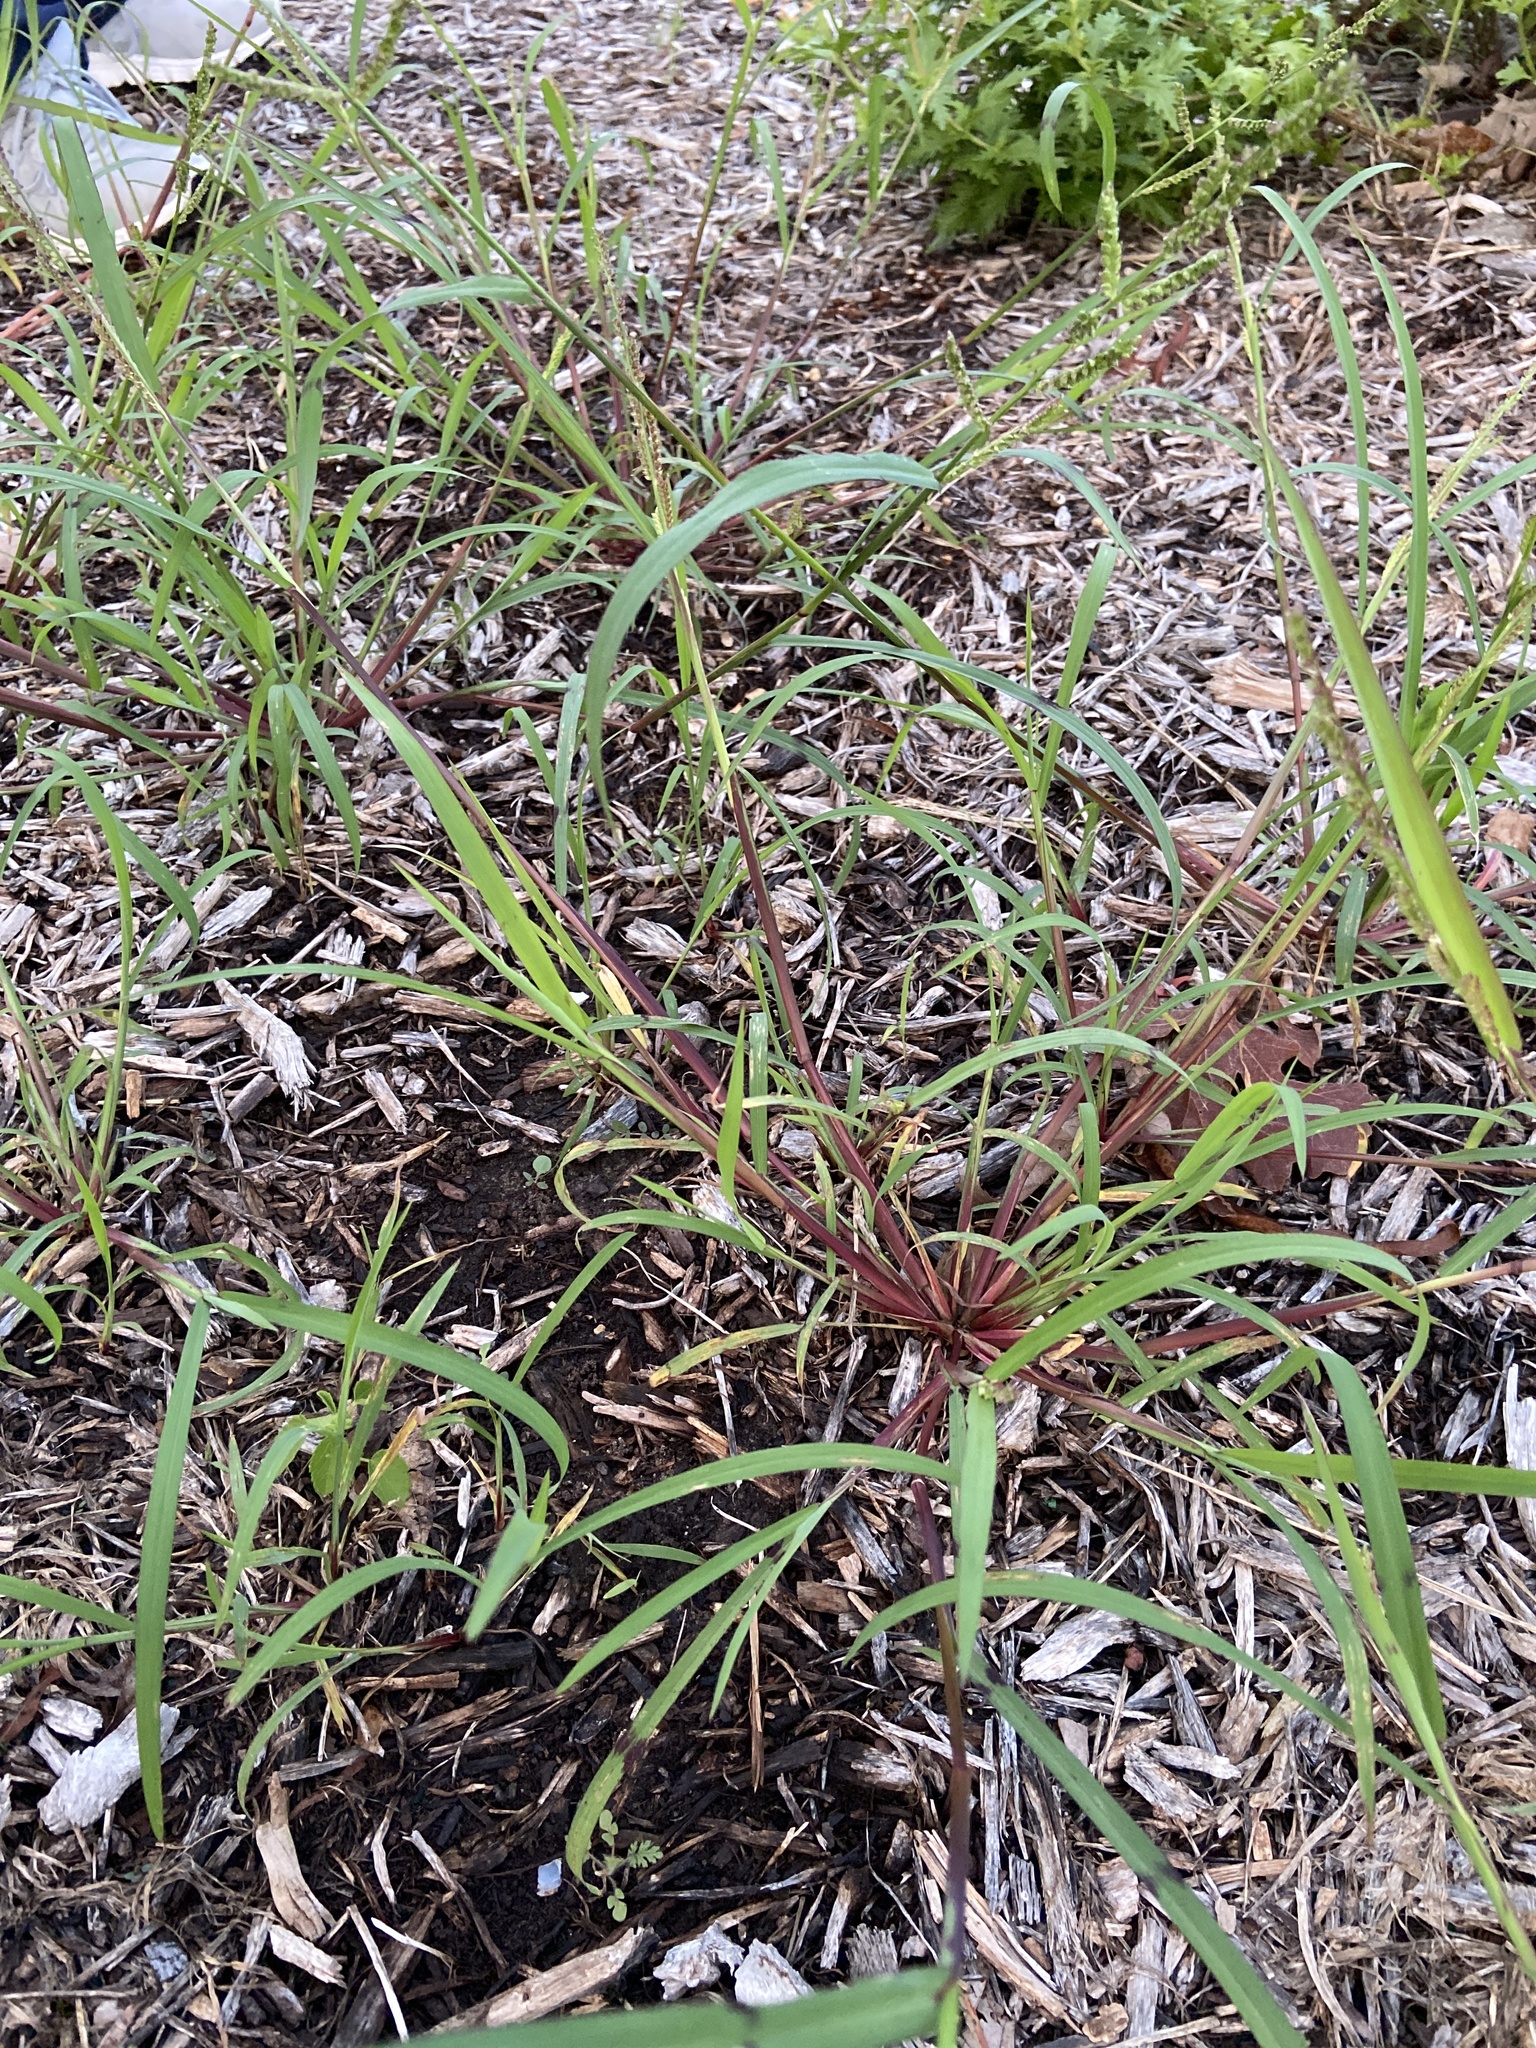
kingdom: Plantae
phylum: Tracheophyta
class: Liliopsida
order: Poales
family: Poaceae
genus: Echinochloa
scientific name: Echinochloa colonum
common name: Jungle rice
